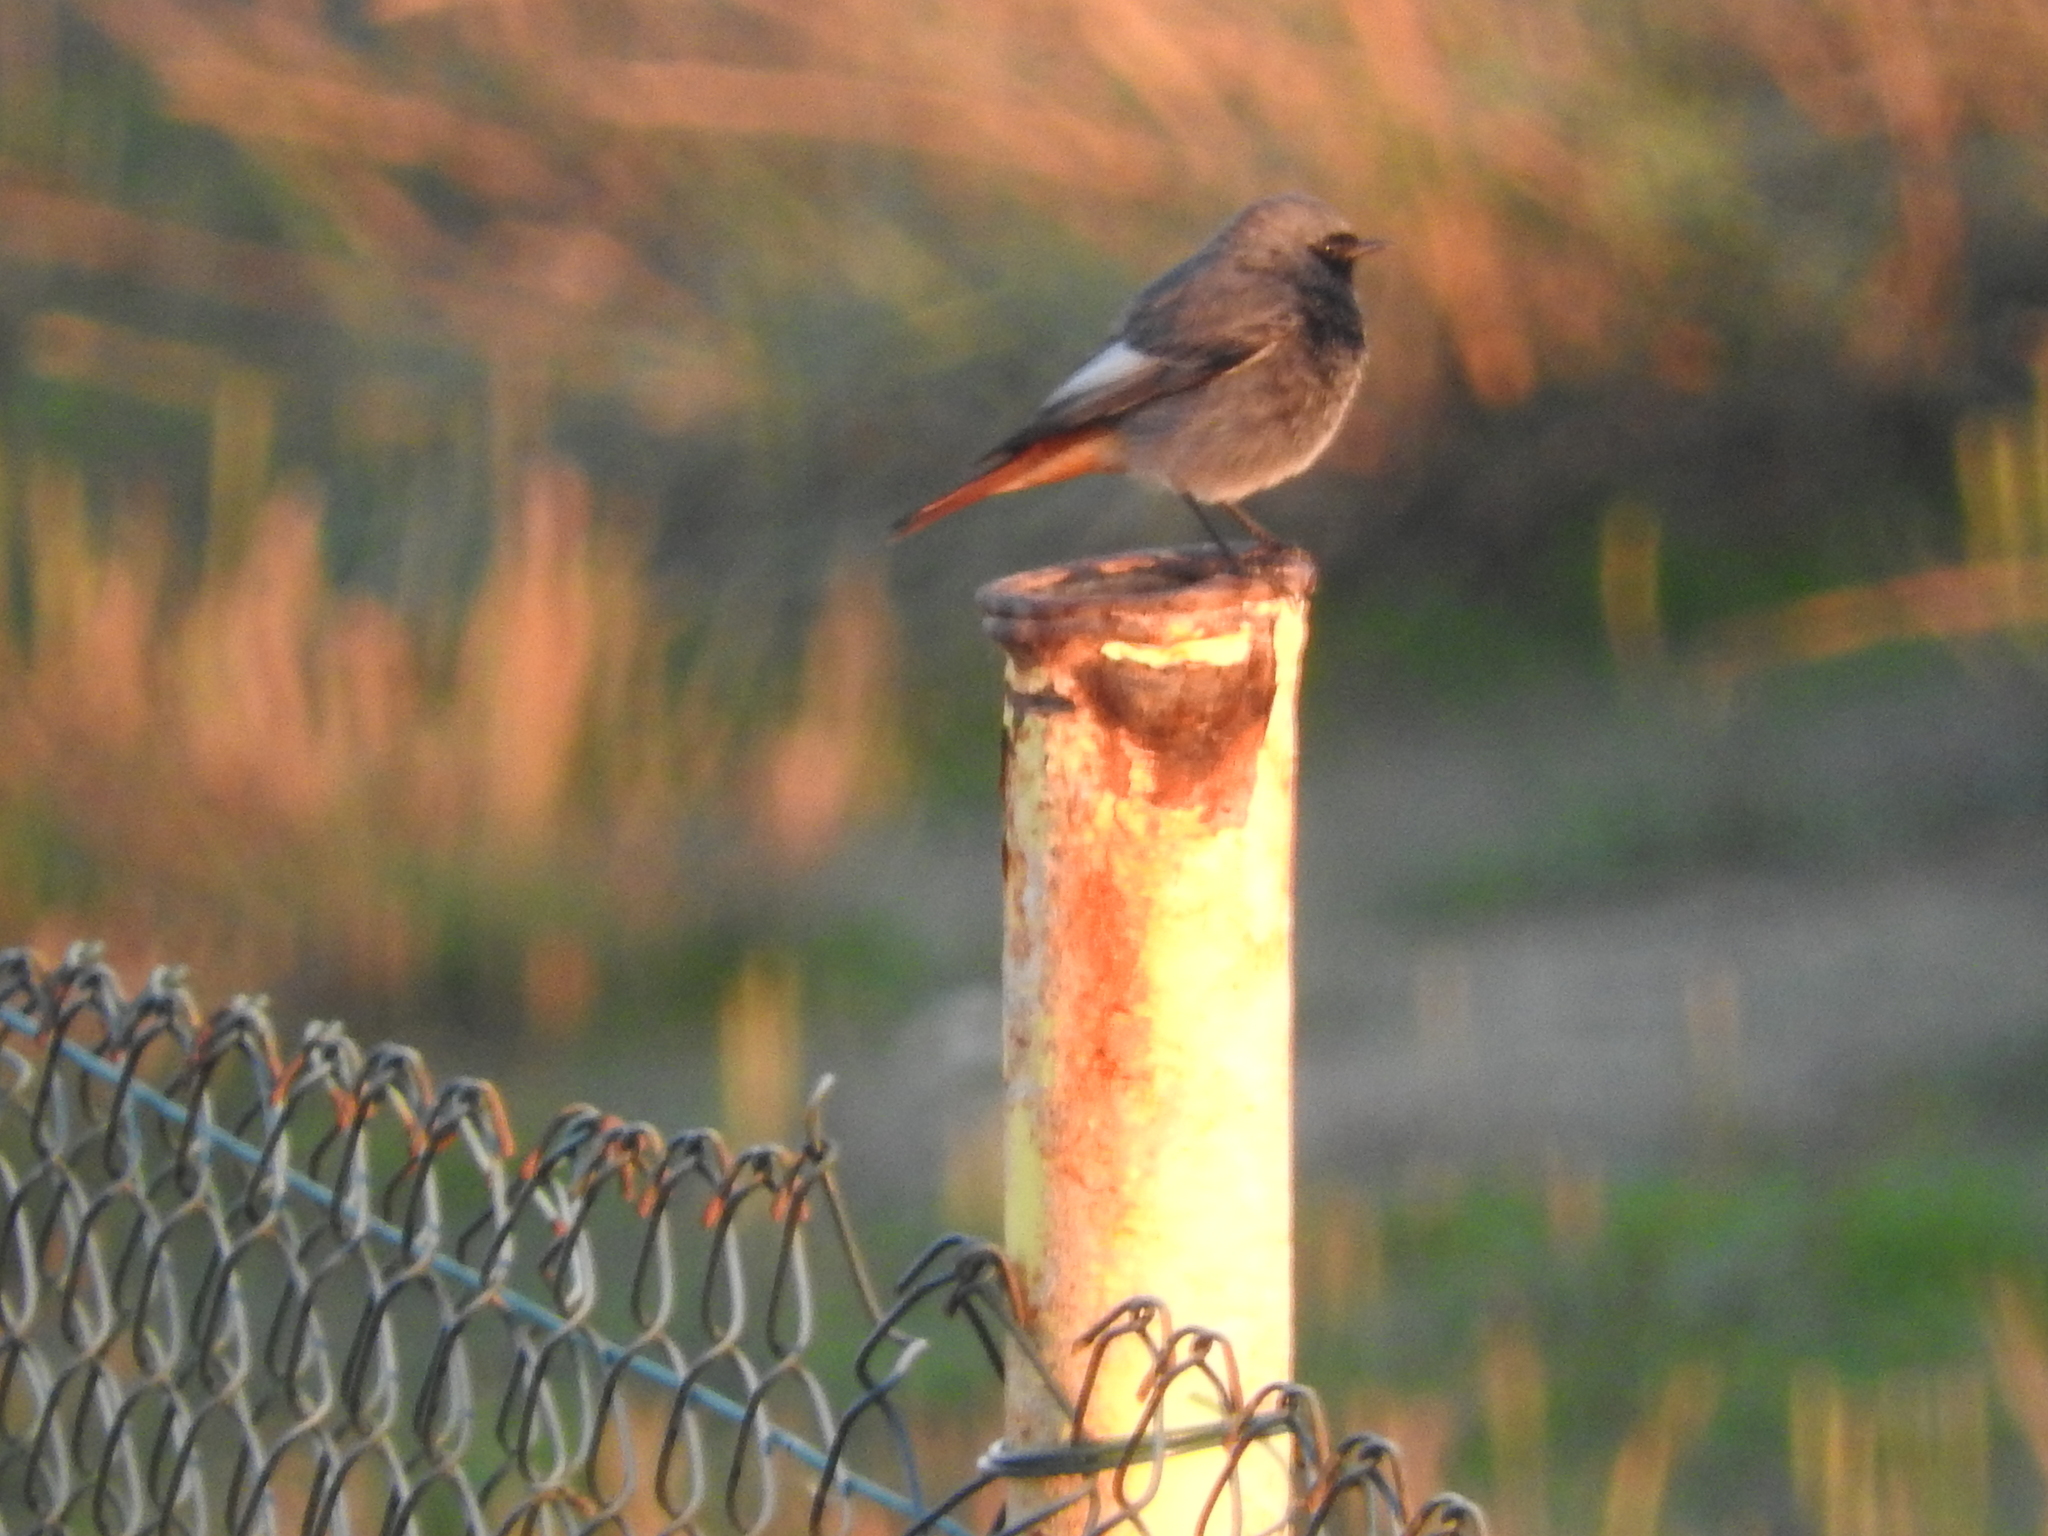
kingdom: Animalia
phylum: Chordata
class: Aves
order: Passeriformes
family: Muscicapidae
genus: Phoenicurus
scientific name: Phoenicurus ochruros
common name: Black redstart
